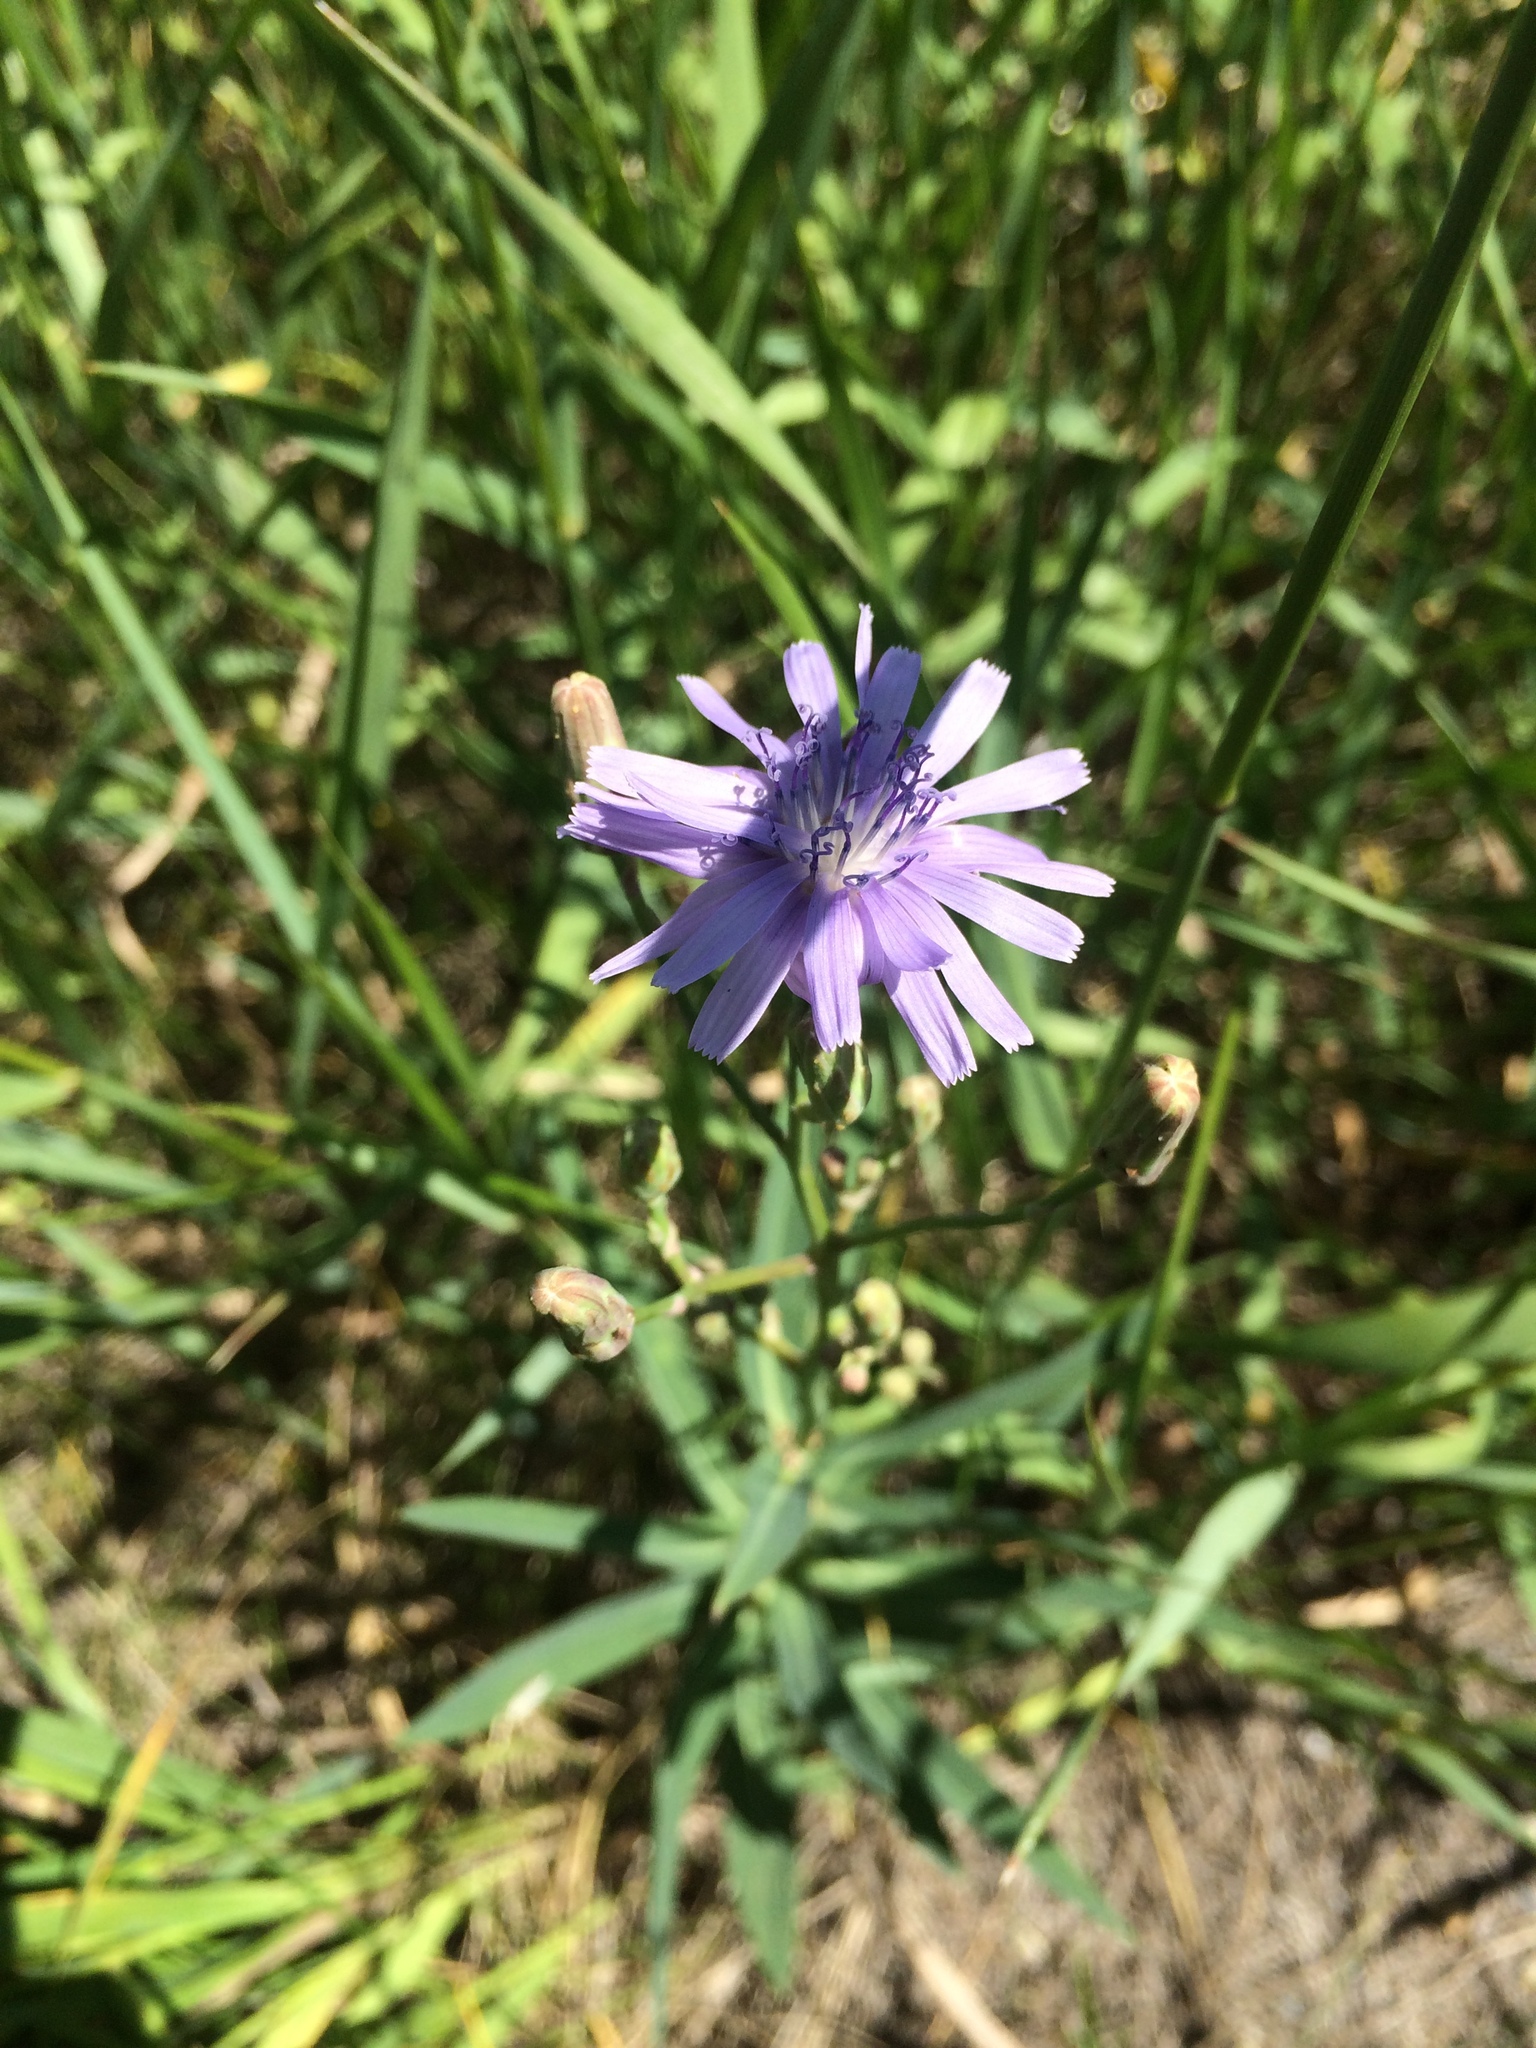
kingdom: Plantae
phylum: Tracheophyta
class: Magnoliopsida
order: Asterales
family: Asteraceae
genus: Lactuca
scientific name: Lactuca pulchella
